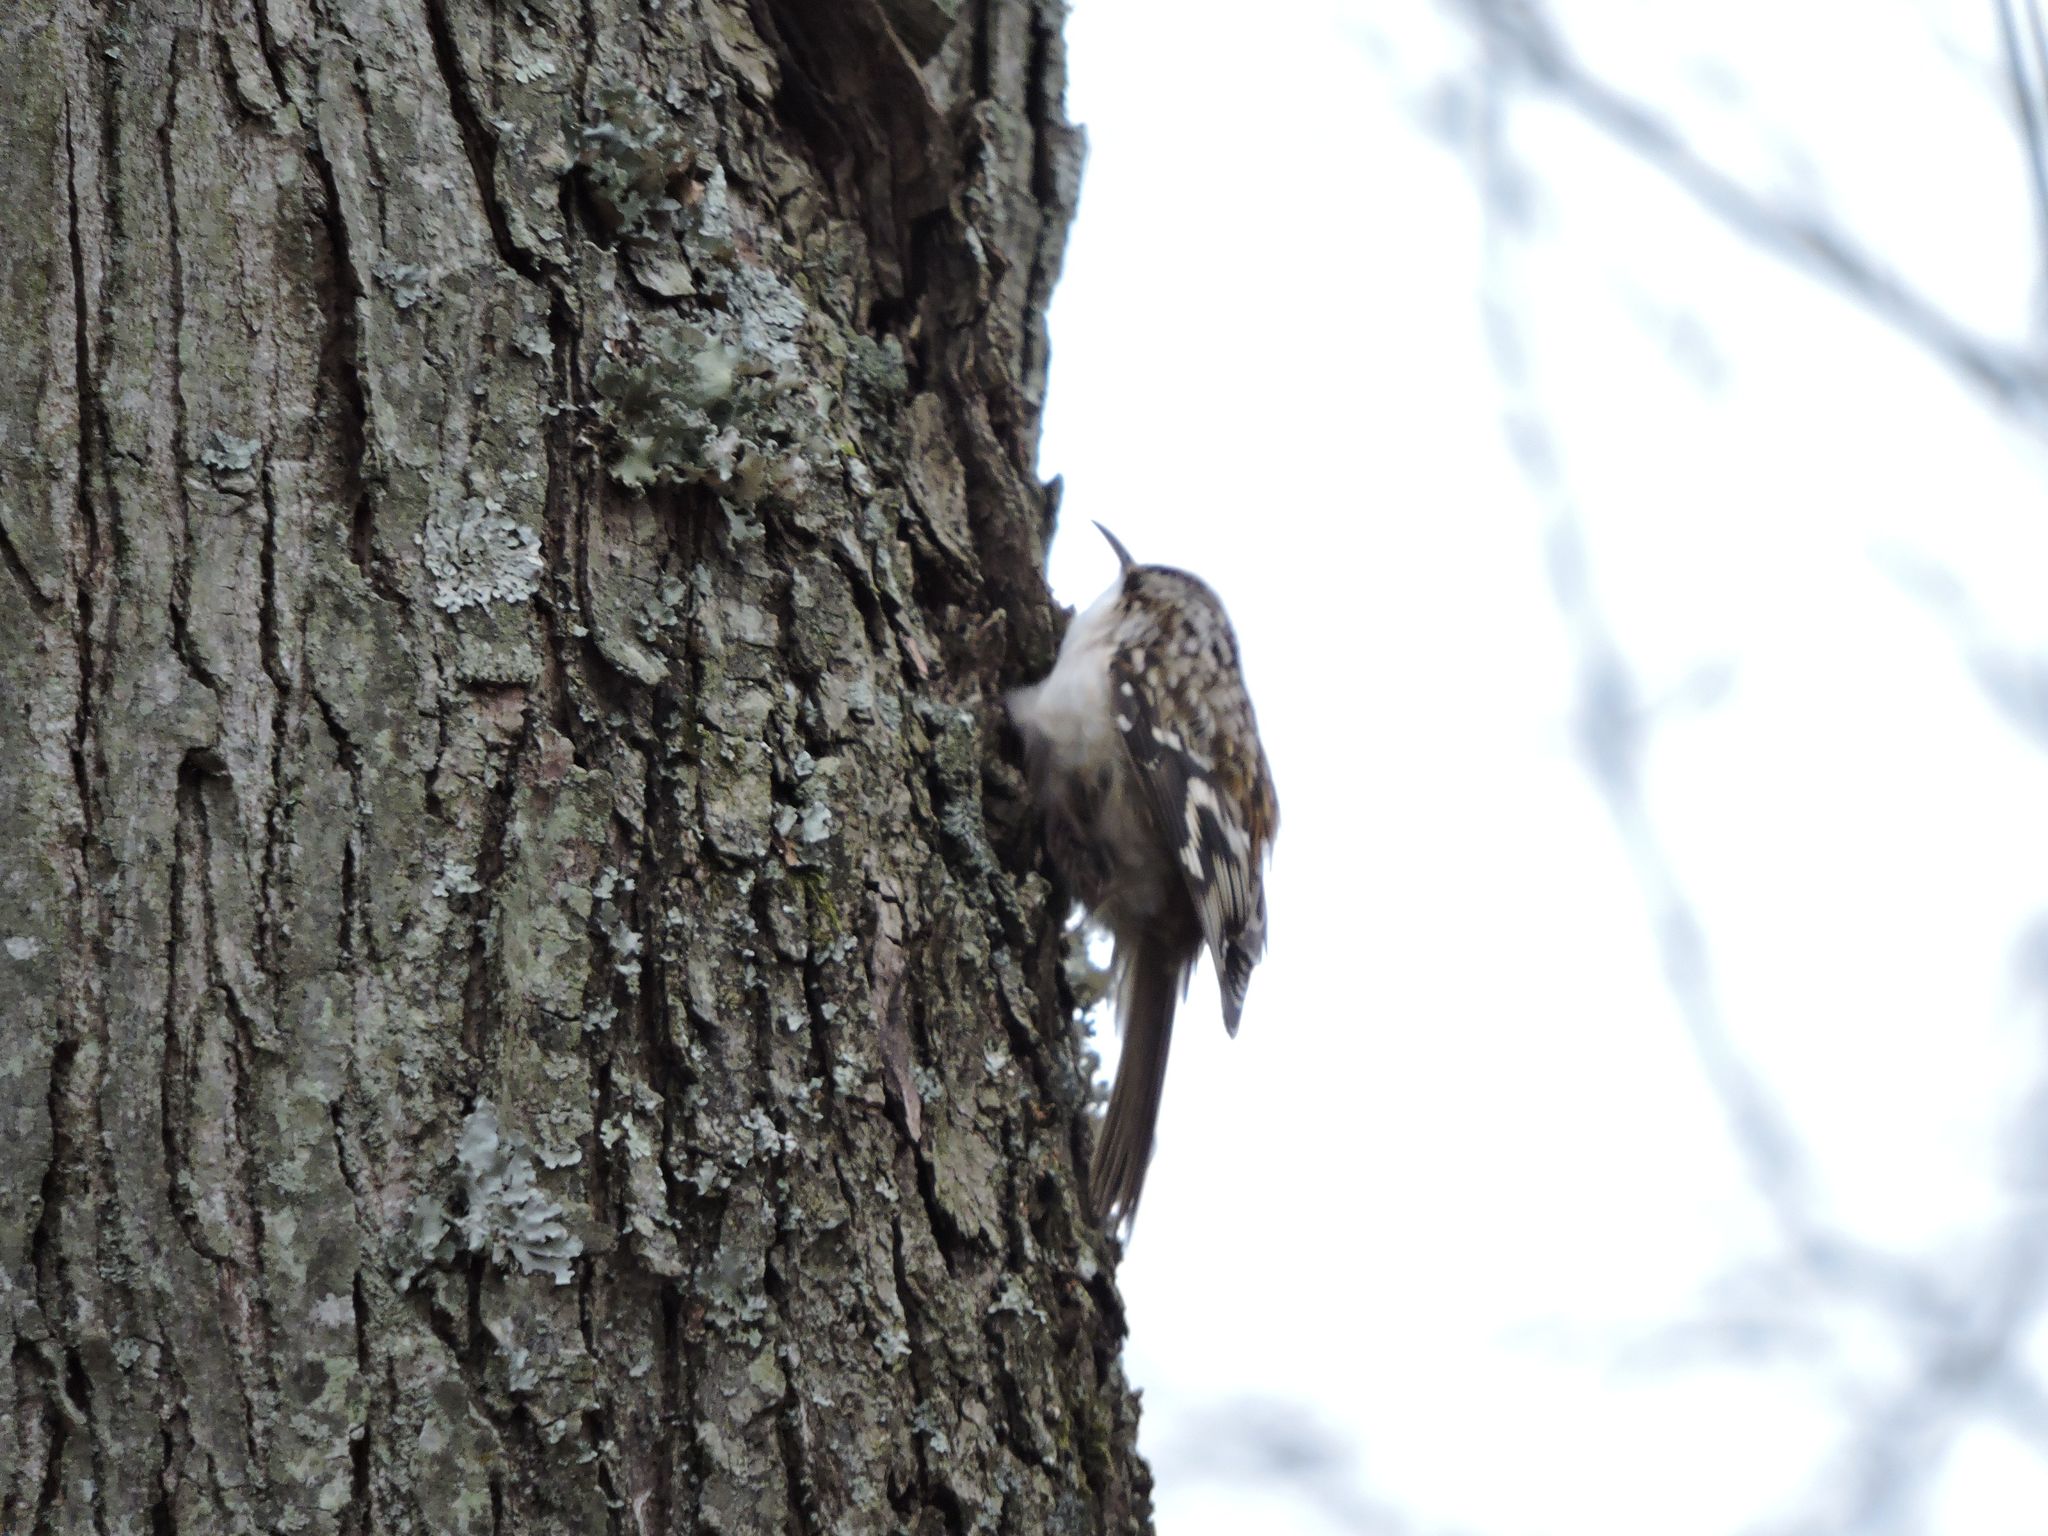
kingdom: Animalia
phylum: Chordata
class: Aves
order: Passeriformes
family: Certhiidae
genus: Certhia
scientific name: Certhia americana
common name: Brown creeper
